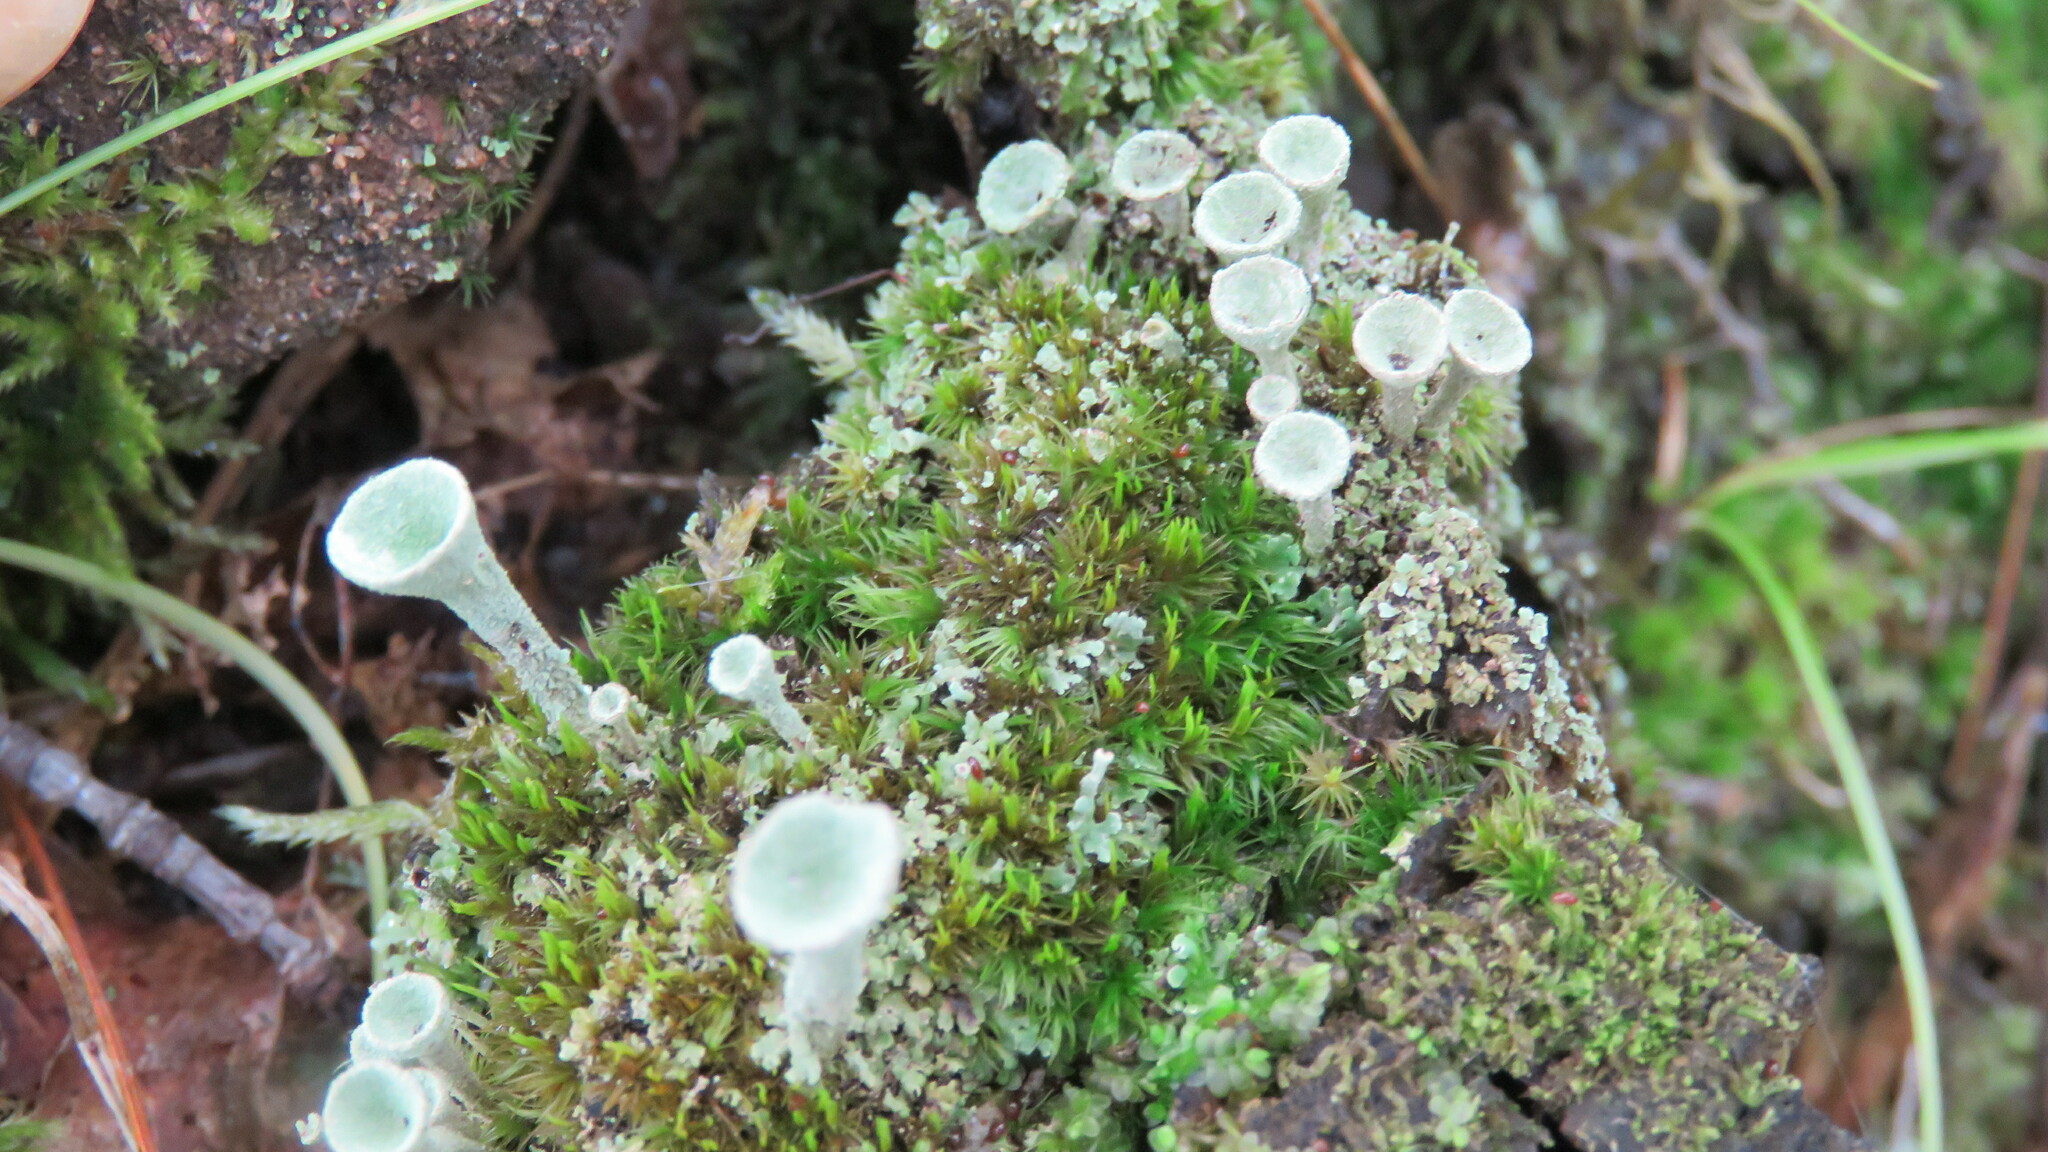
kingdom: Fungi
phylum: Ascomycota
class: Lecanoromycetes
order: Lecanorales
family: Cladoniaceae
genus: Cladonia
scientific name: Cladonia fimbriata
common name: Powdered trumpet lichen
